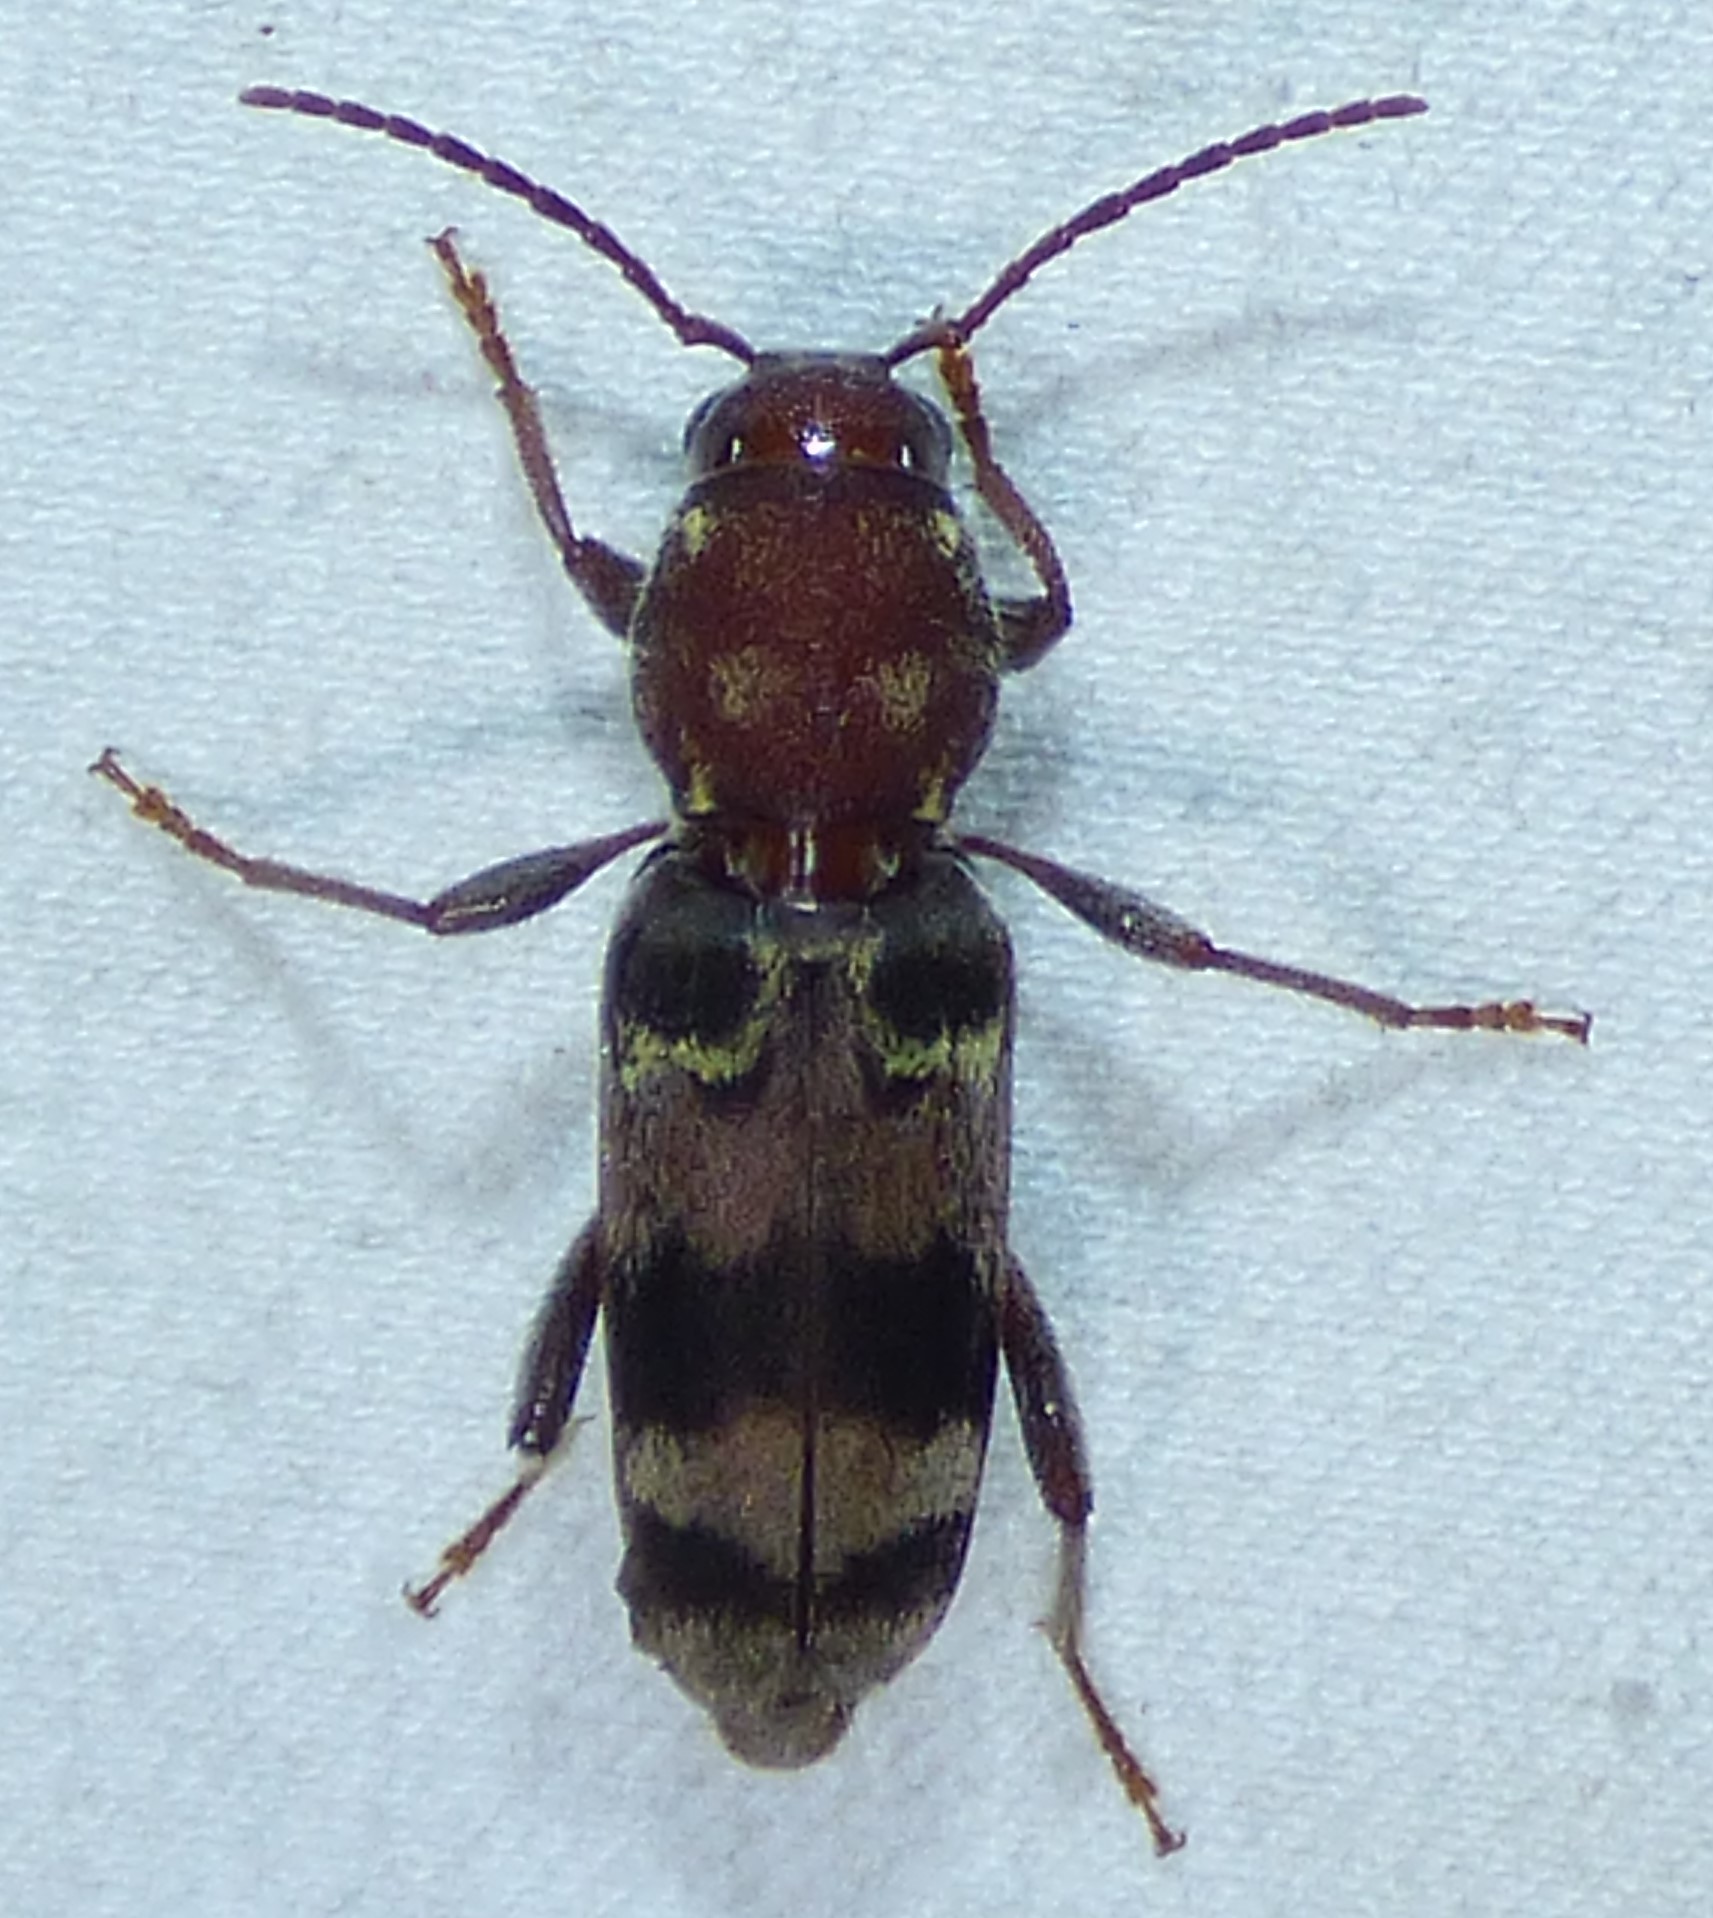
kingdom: Animalia
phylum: Arthropoda
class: Insecta
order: Coleoptera
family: Cerambycidae
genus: Xylotrechus
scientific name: Xylotrechus colonus
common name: Long-horned beetle
